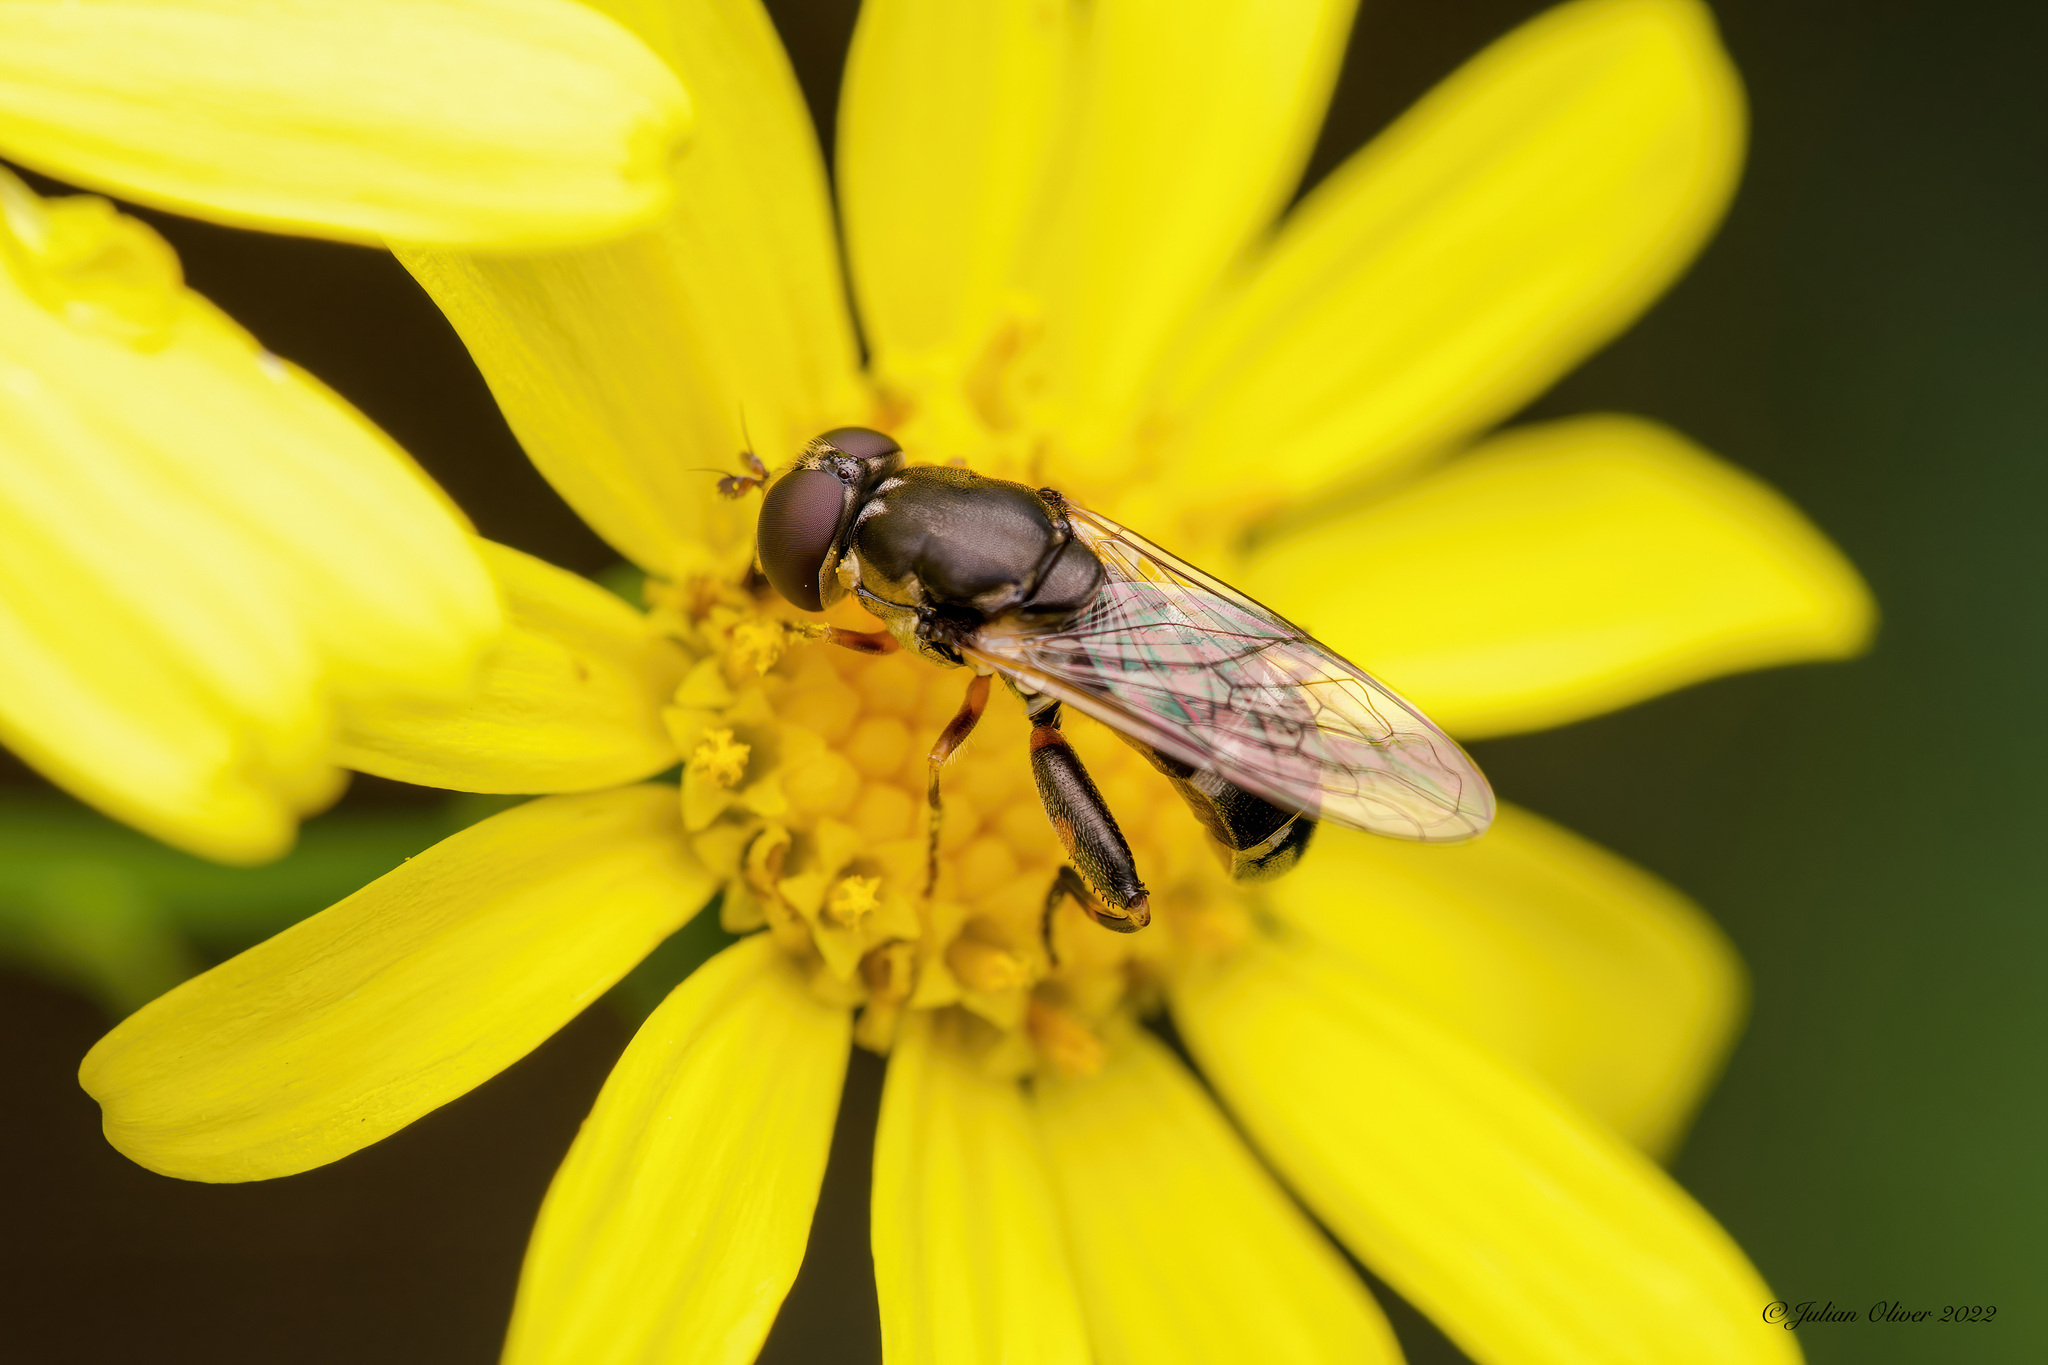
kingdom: Animalia
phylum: Arthropoda
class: Insecta
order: Diptera
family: Syrphidae
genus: Syritta
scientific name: Syritta pipiens
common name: Hover fly
